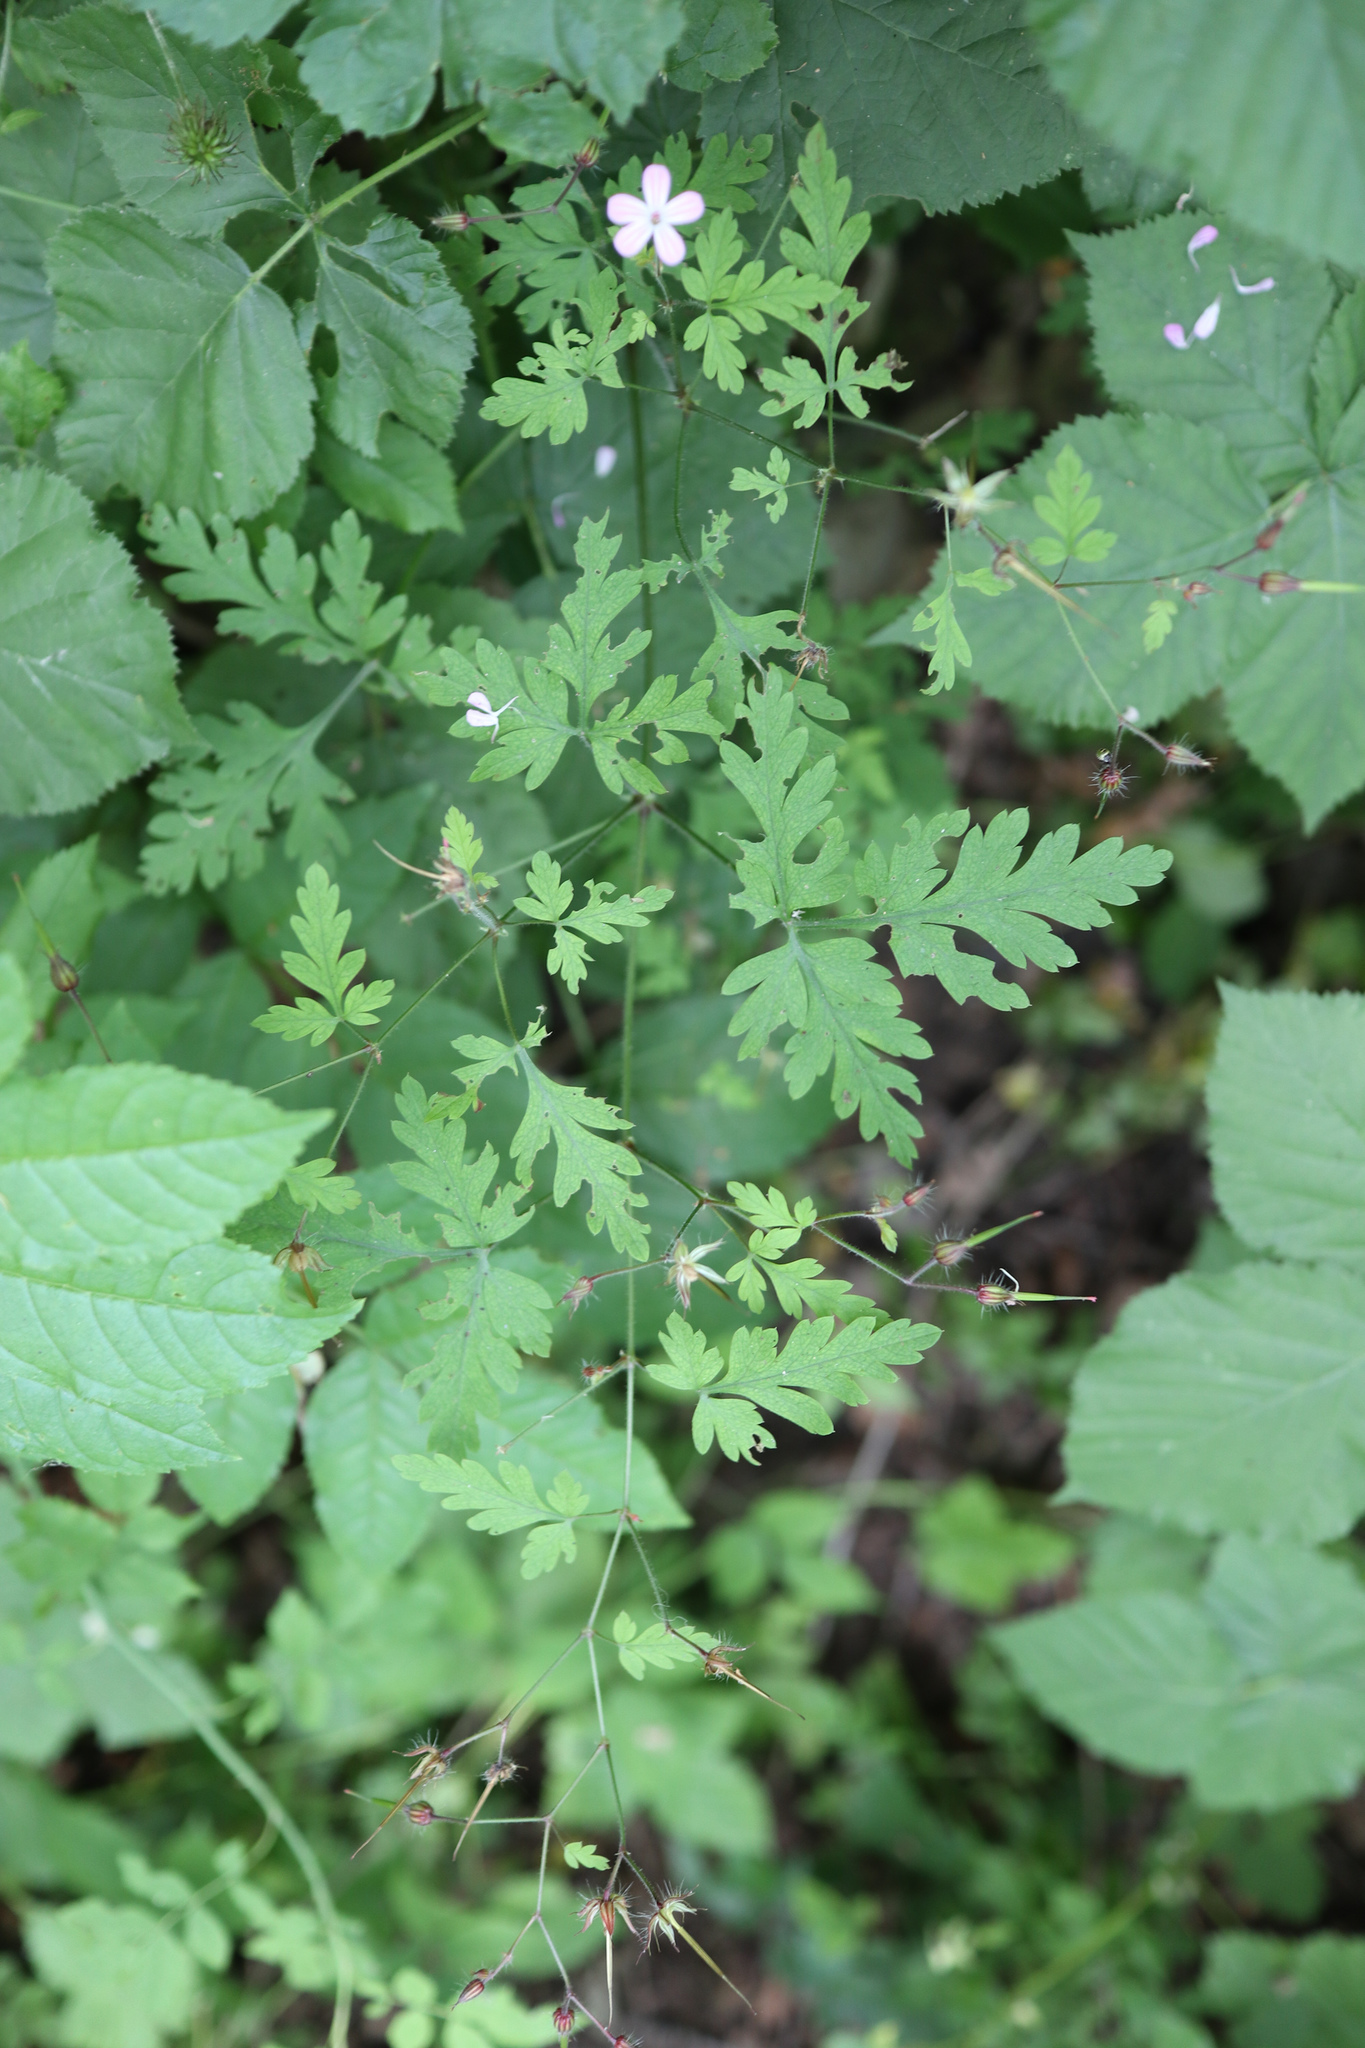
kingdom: Plantae
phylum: Tracheophyta
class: Magnoliopsida
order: Geraniales
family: Geraniaceae
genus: Geranium
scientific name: Geranium robertianum
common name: Herb-robert
